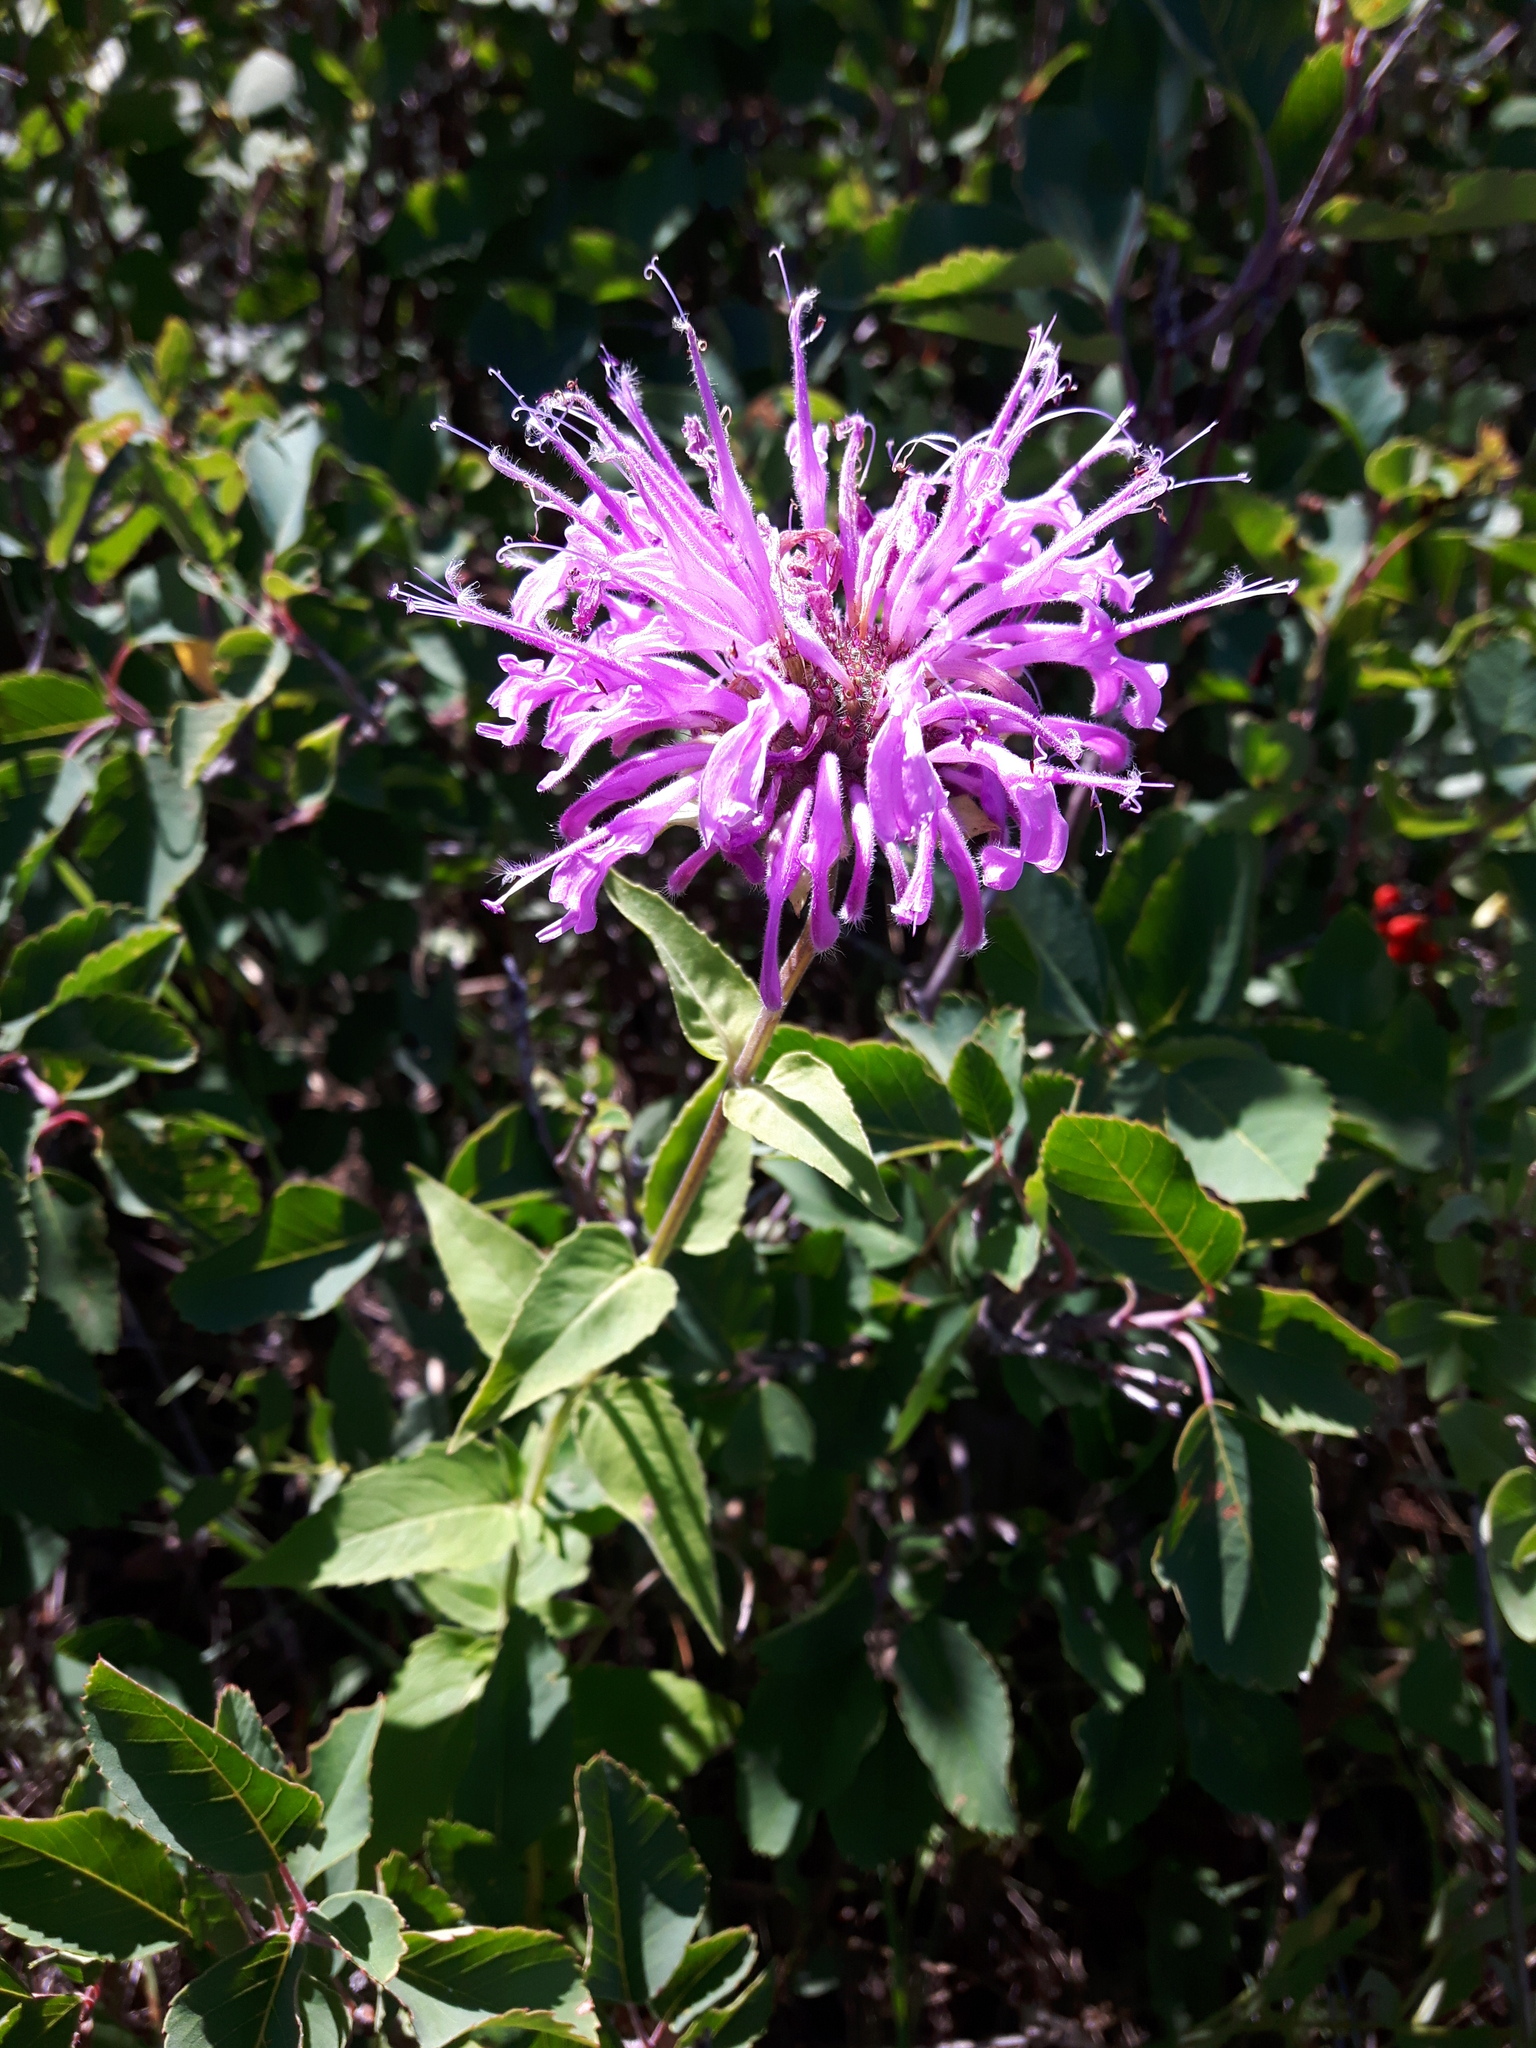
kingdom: Plantae
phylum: Tracheophyta
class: Magnoliopsida
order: Lamiales
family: Lamiaceae
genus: Monarda
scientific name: Monarda fistulosa
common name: Purple beebalm
